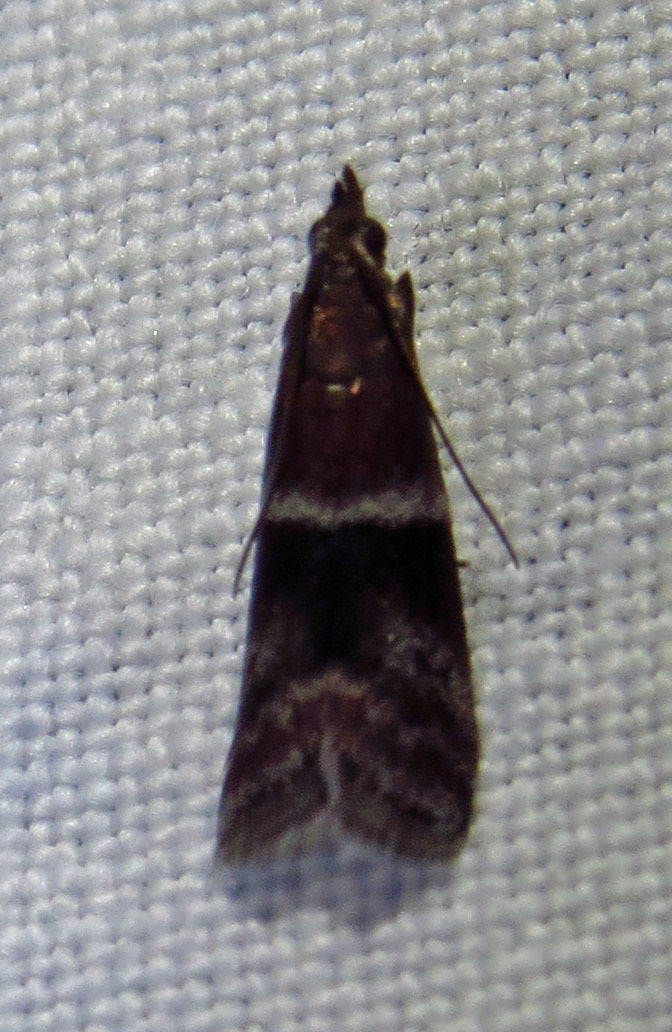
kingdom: Animalia
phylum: Arthropoda
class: Insecta
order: Lepidoptera
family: Pyralidae
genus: Moodna
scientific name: Moodna ostrinella
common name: Darker moodna moth
